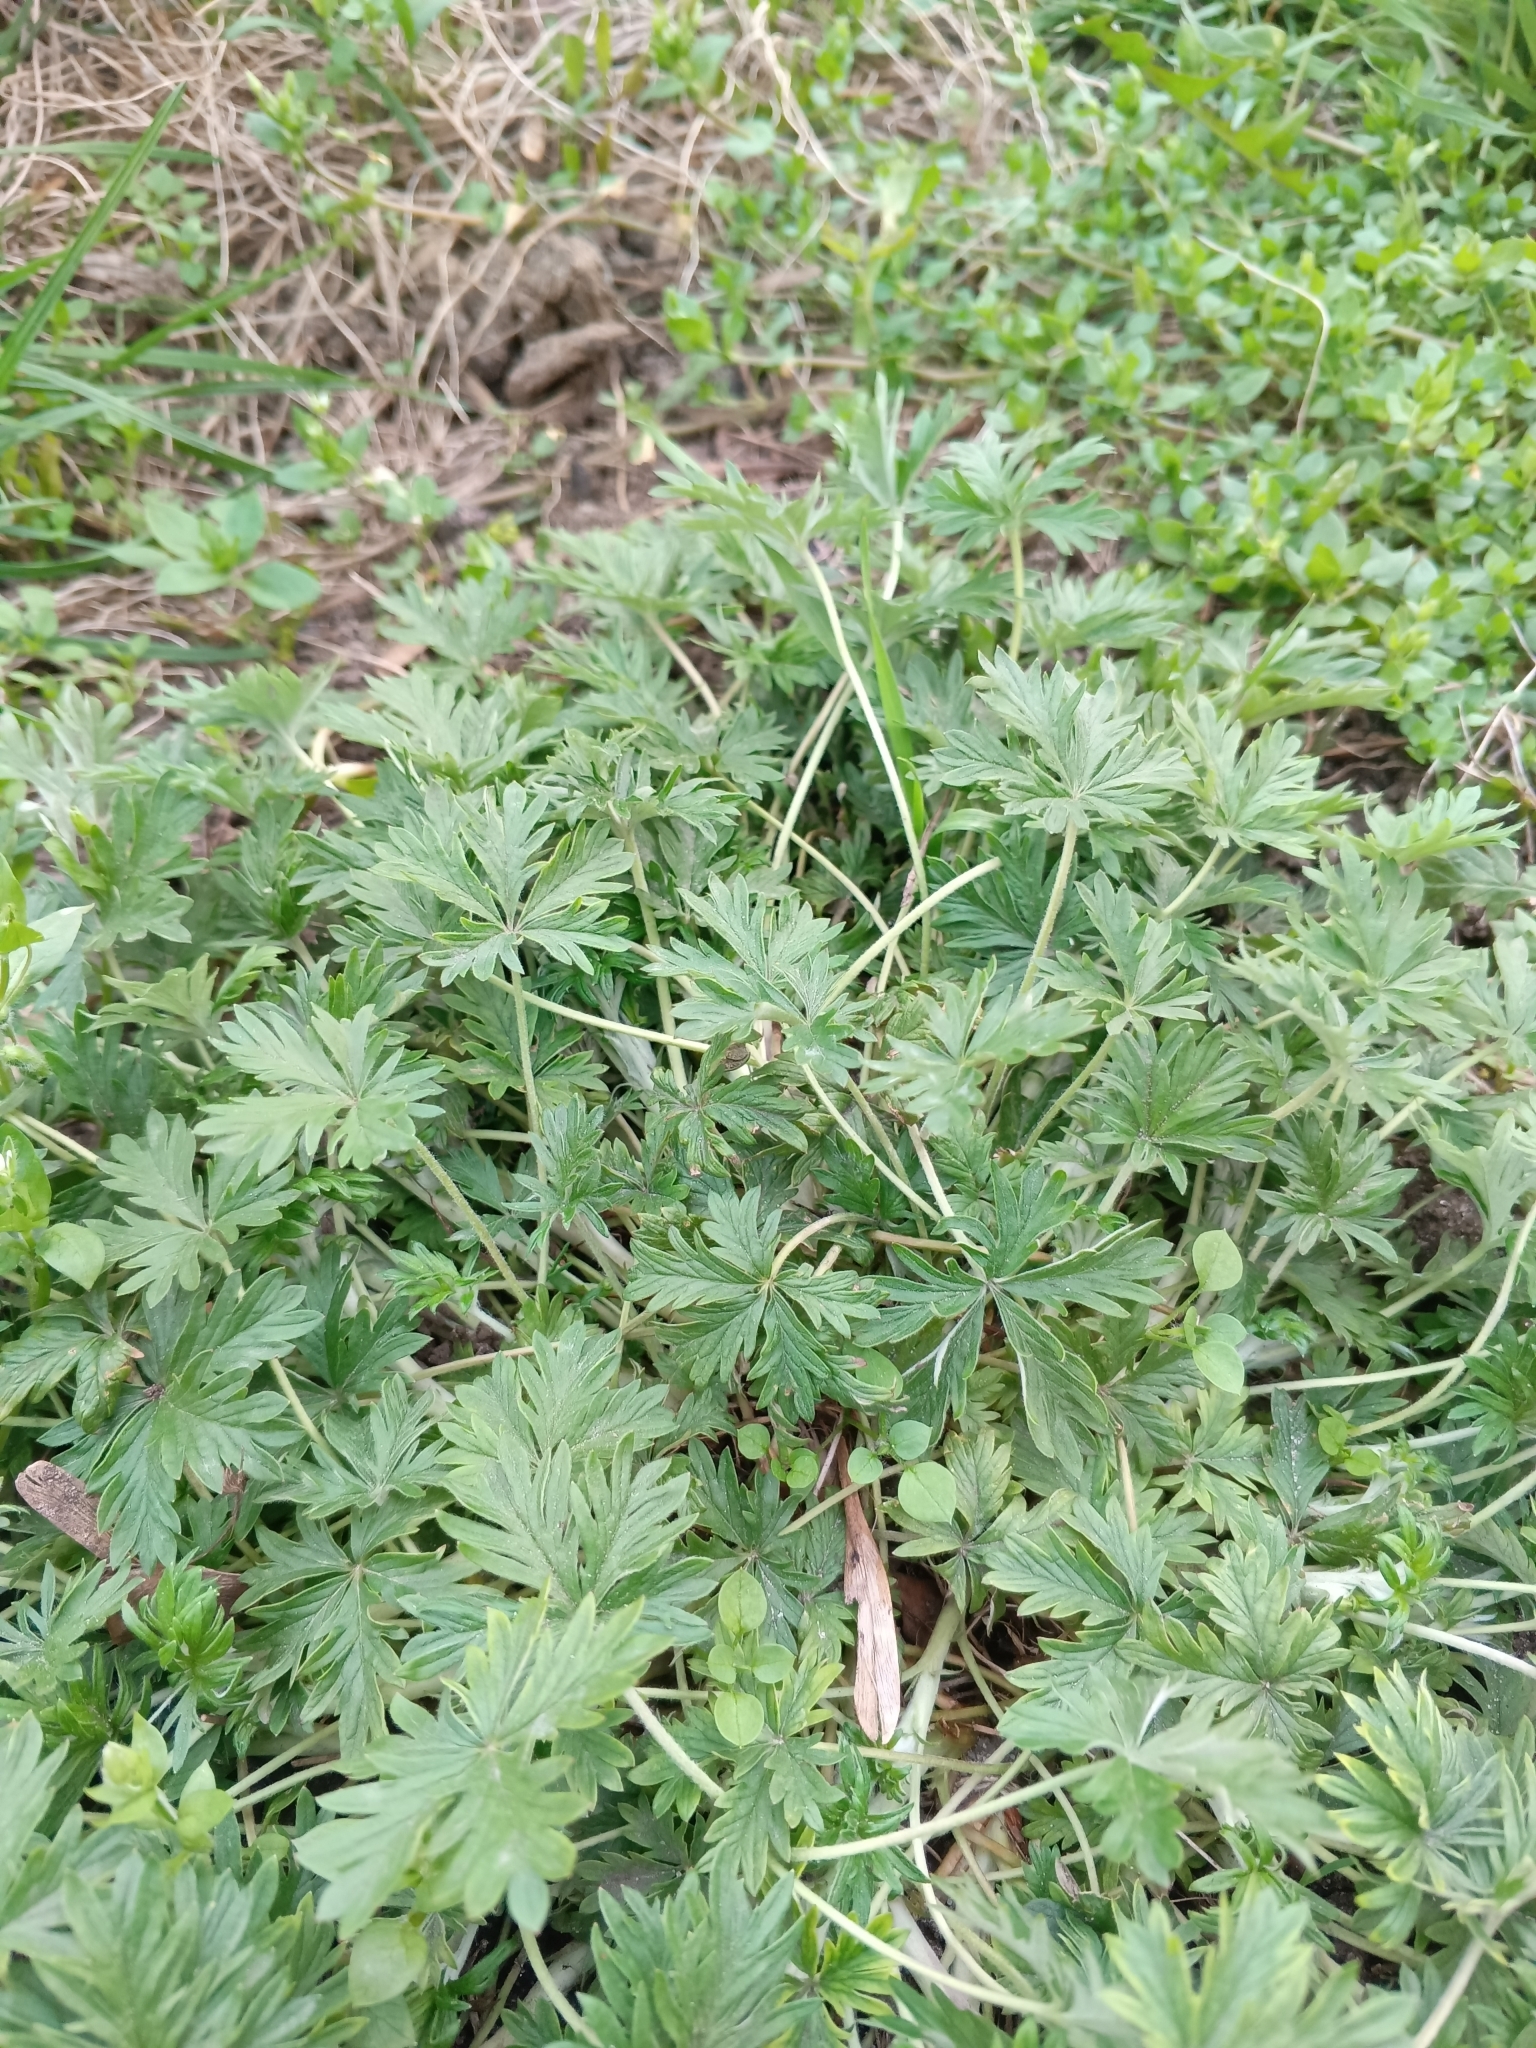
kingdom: Plantae
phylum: Tracheophyta
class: Magnoliopsida
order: Rosales
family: Rosaceae
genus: Potentilla
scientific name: Potentilla argentea
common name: Hoary cinquefoil
